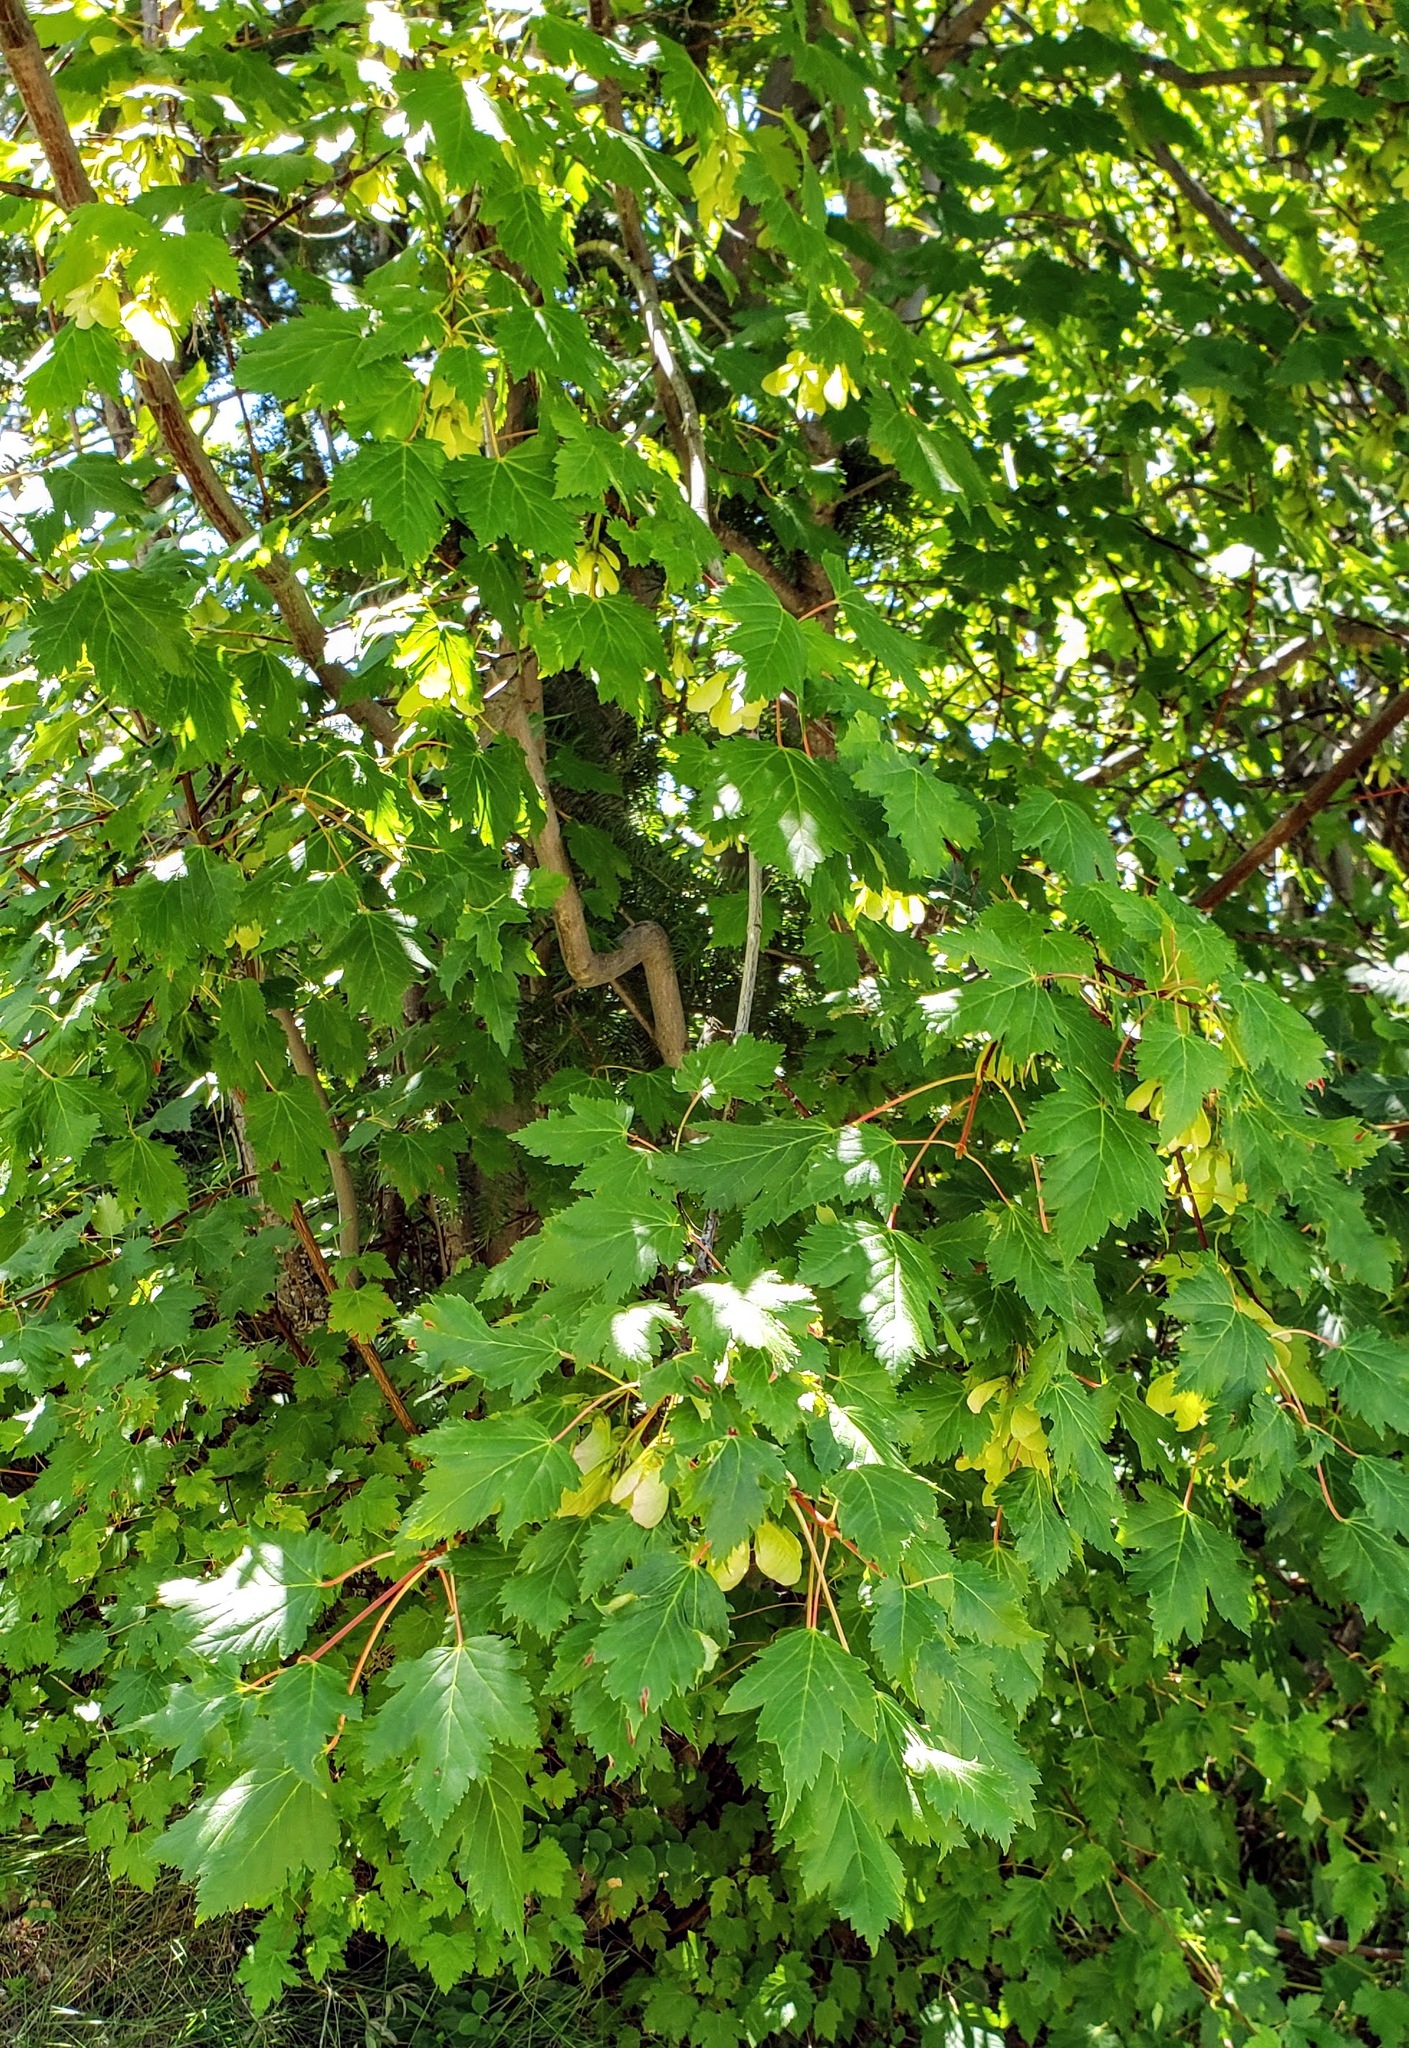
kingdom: Plantae
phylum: Tracheophyta
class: Magnoliopsida
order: Sapindales
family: Sapindaceae
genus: Acer
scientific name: Acer glabrum
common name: Rocky mountain maple
